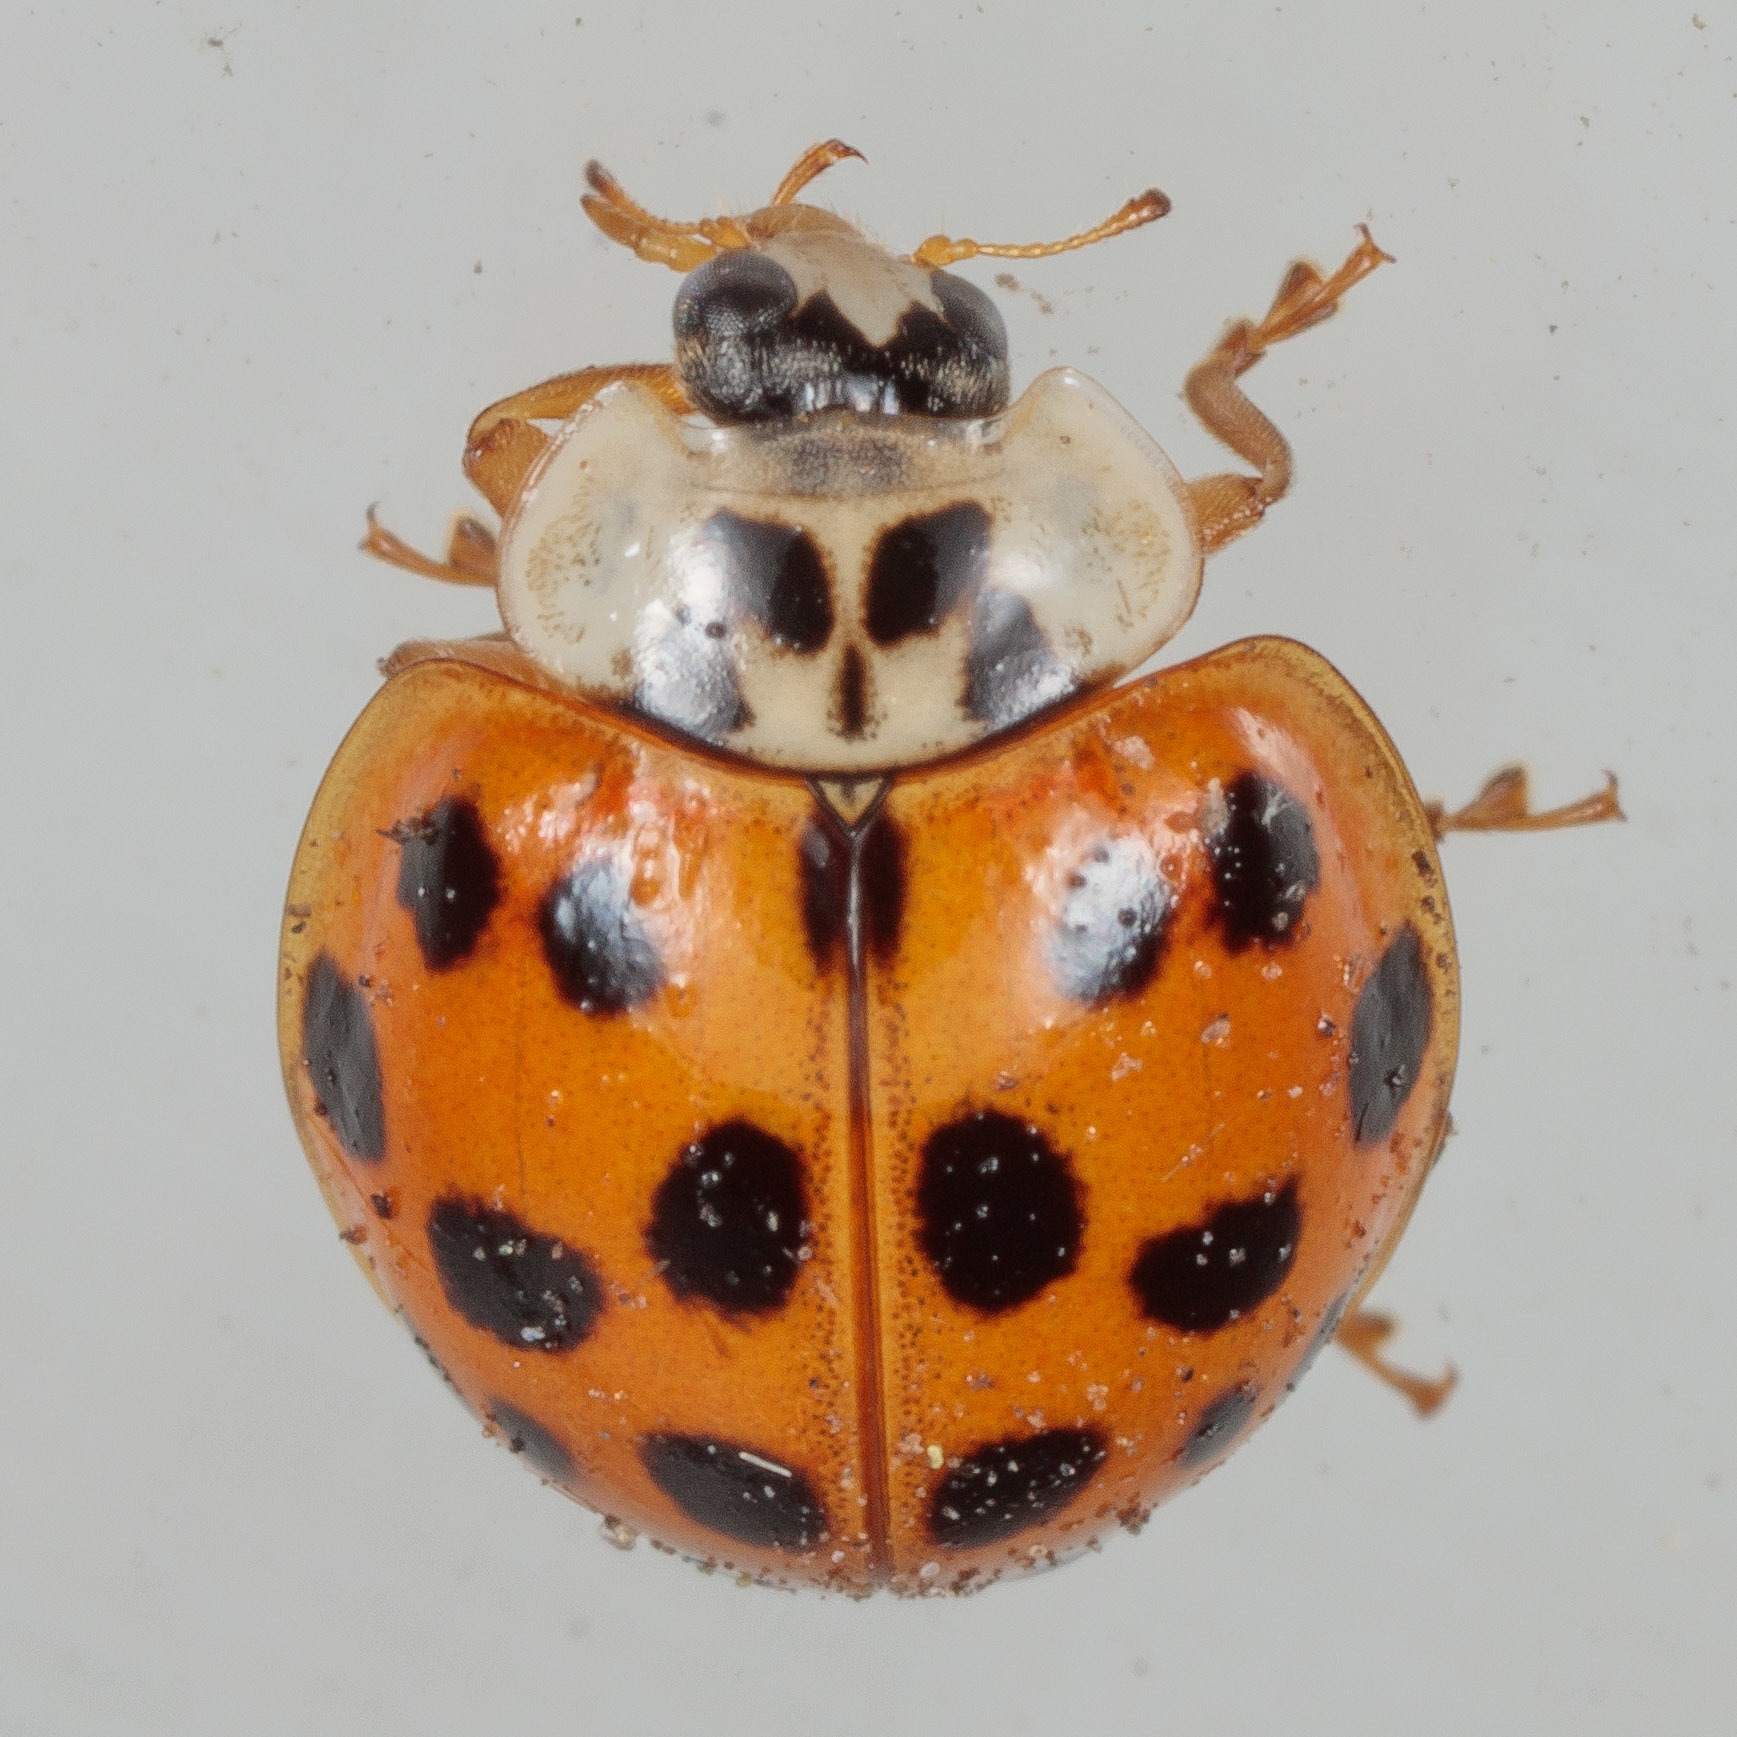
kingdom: Animalia
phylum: Arthropoda
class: Insecta
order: Coleoptera
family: Coccinellidae
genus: Harmonia
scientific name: Harmonia axyridis
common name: Harlequin ladybird
